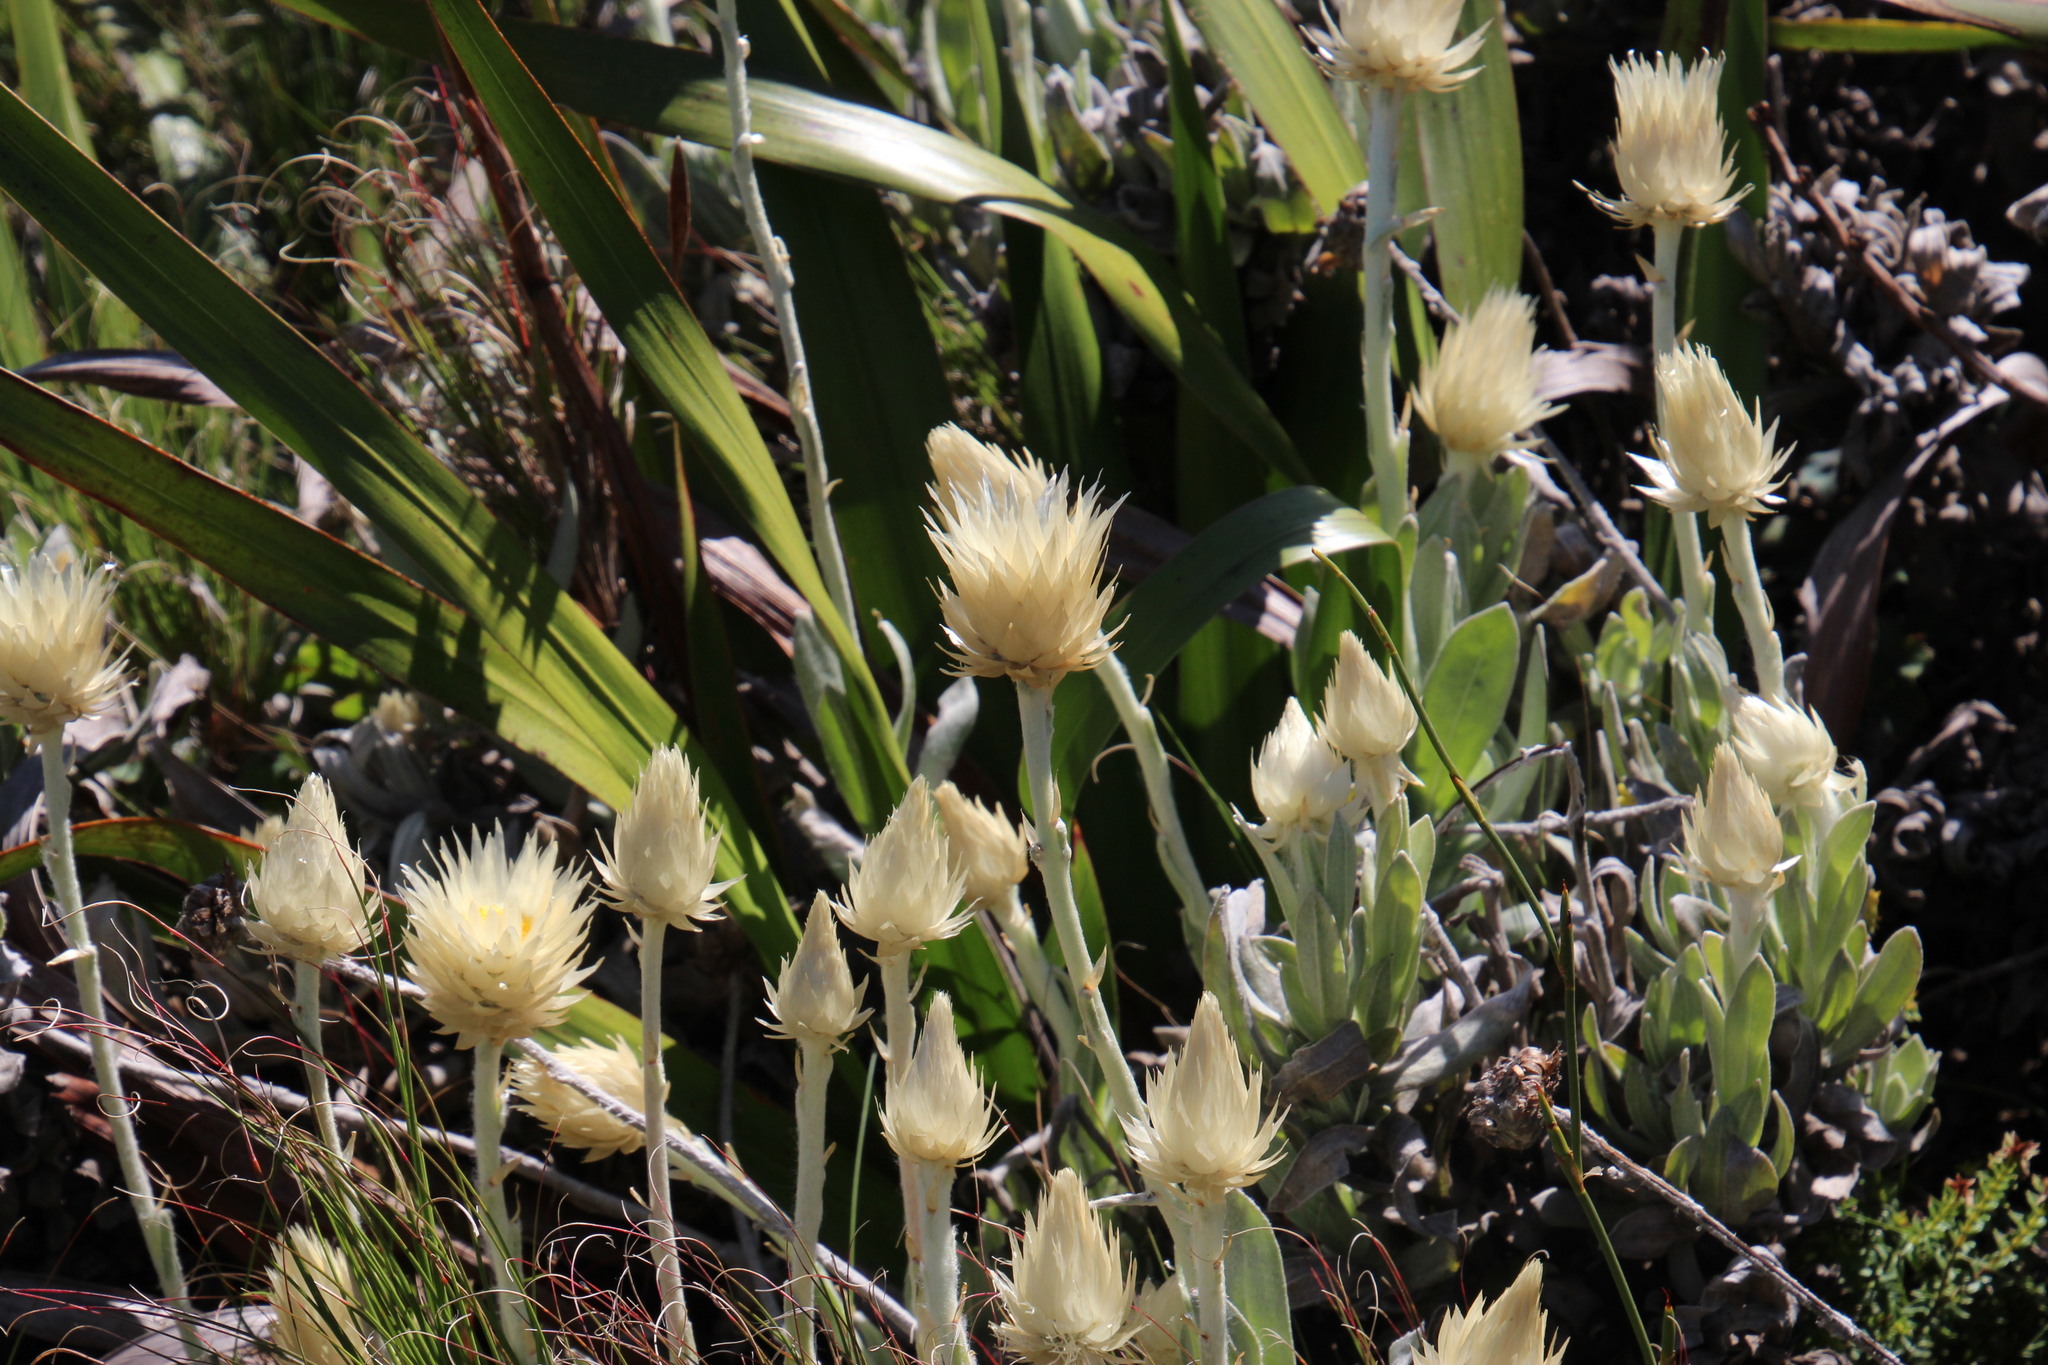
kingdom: Plantae
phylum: Tracheophyta
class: Magnoliopsida
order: Asterales
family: Asteraceae
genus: Syncarpha
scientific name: Syncarpha speciosissima
